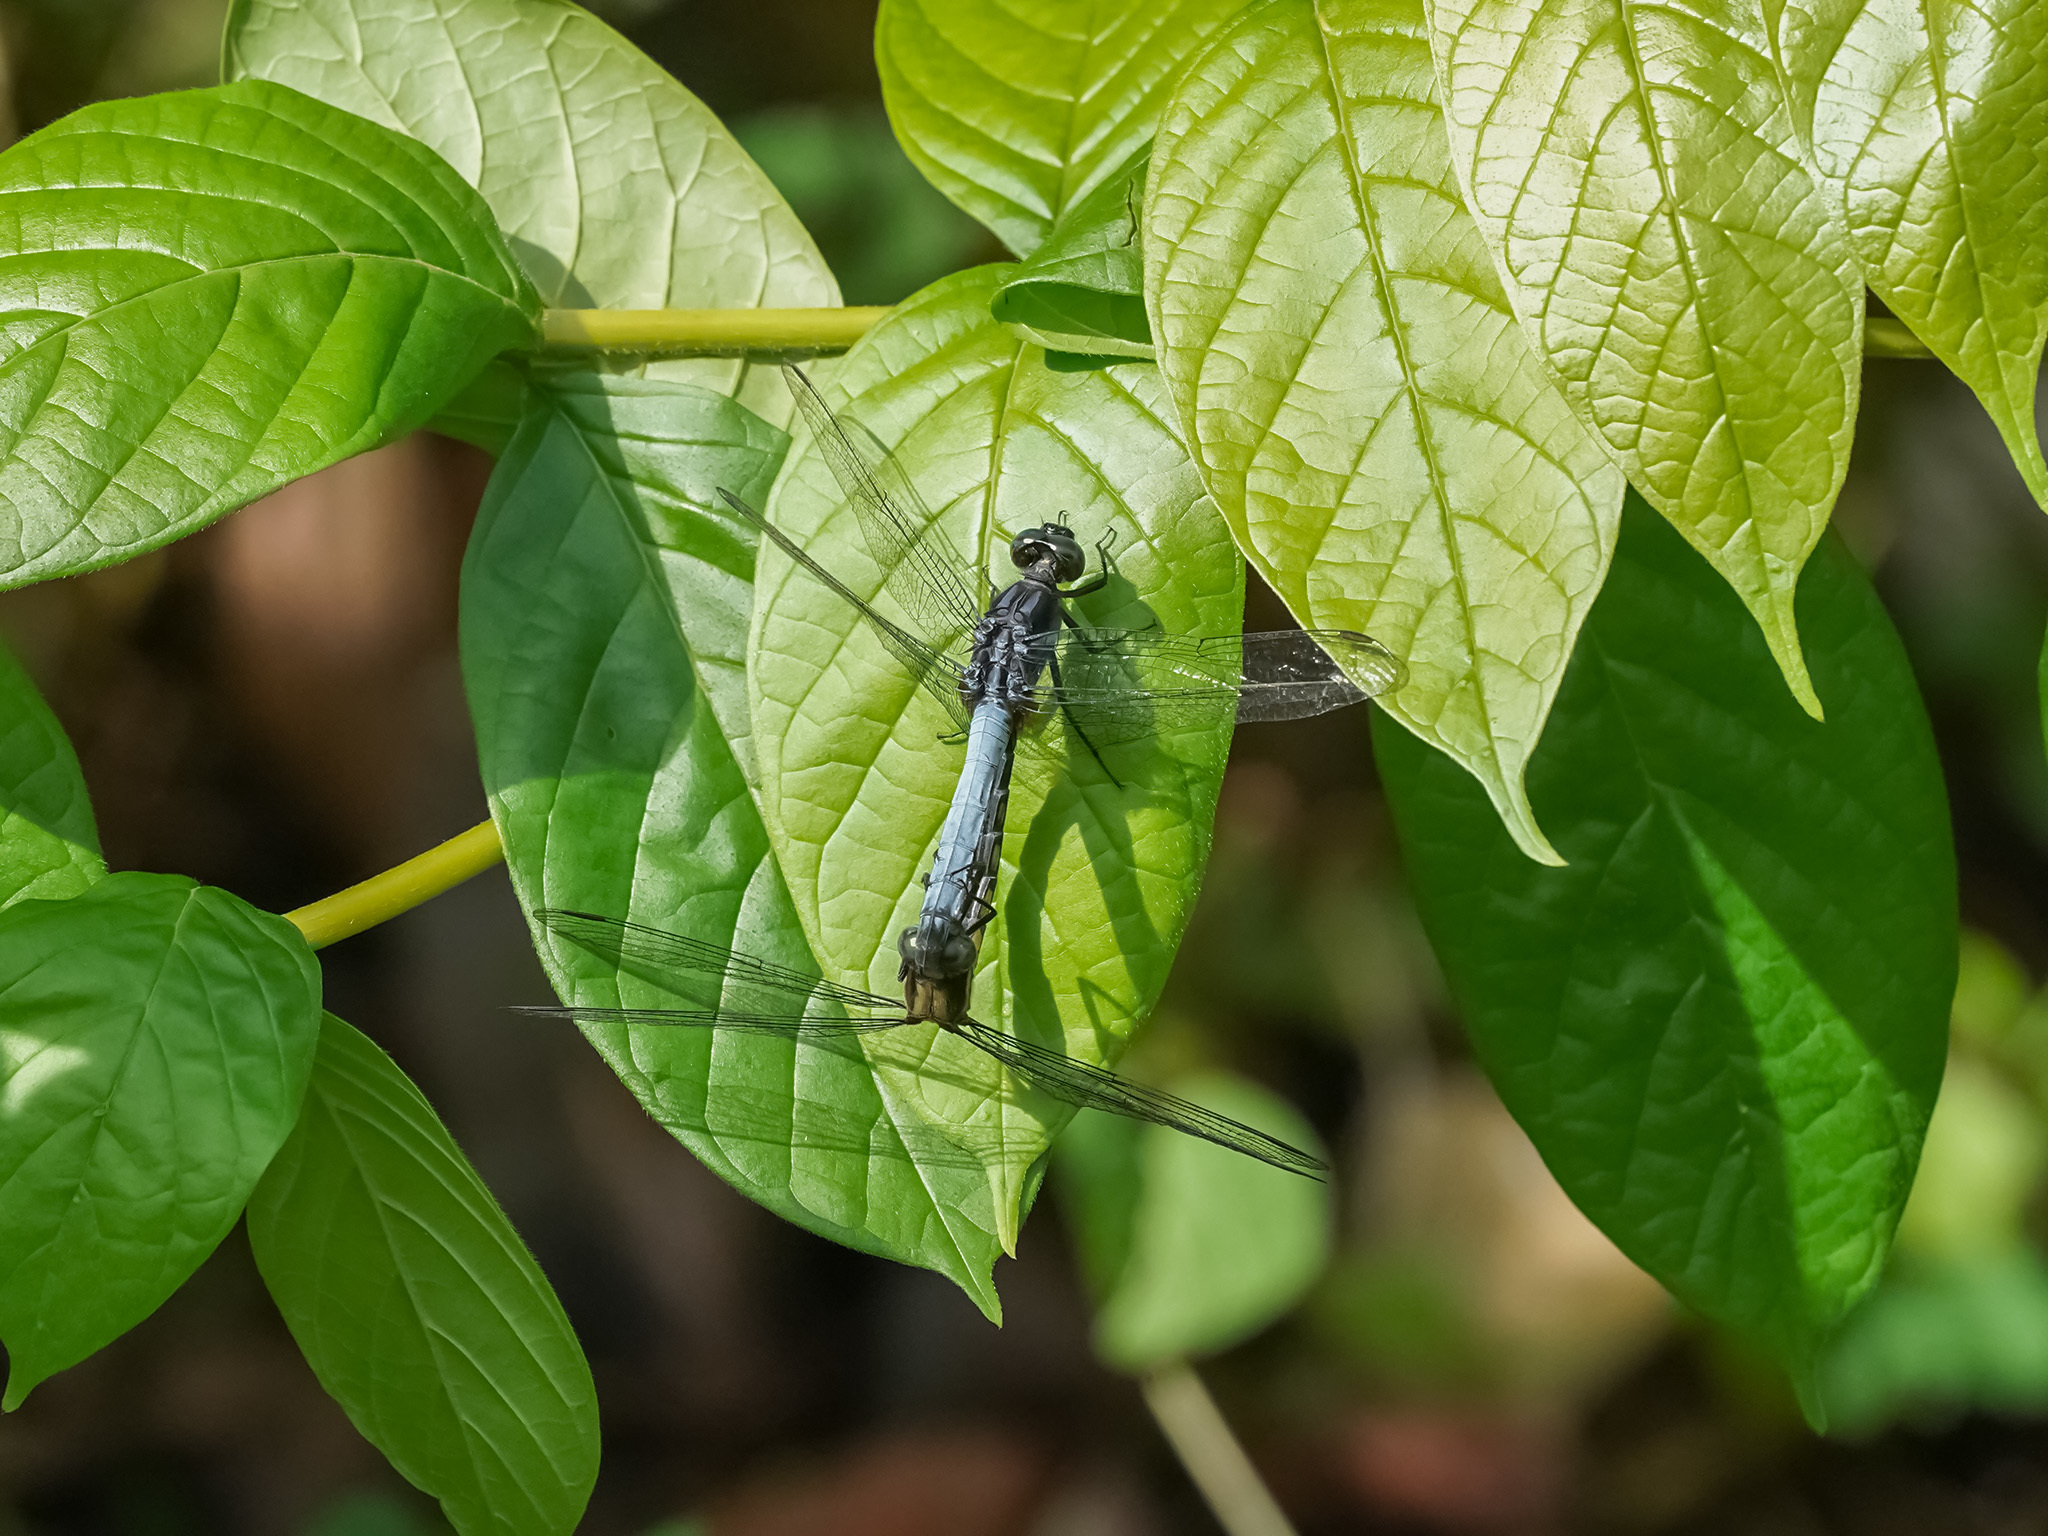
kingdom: Animalia
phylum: Arthropoda
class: Insecta
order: Odonata
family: Libellulidae
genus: Orthetrum
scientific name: Orthetrum glaucum
